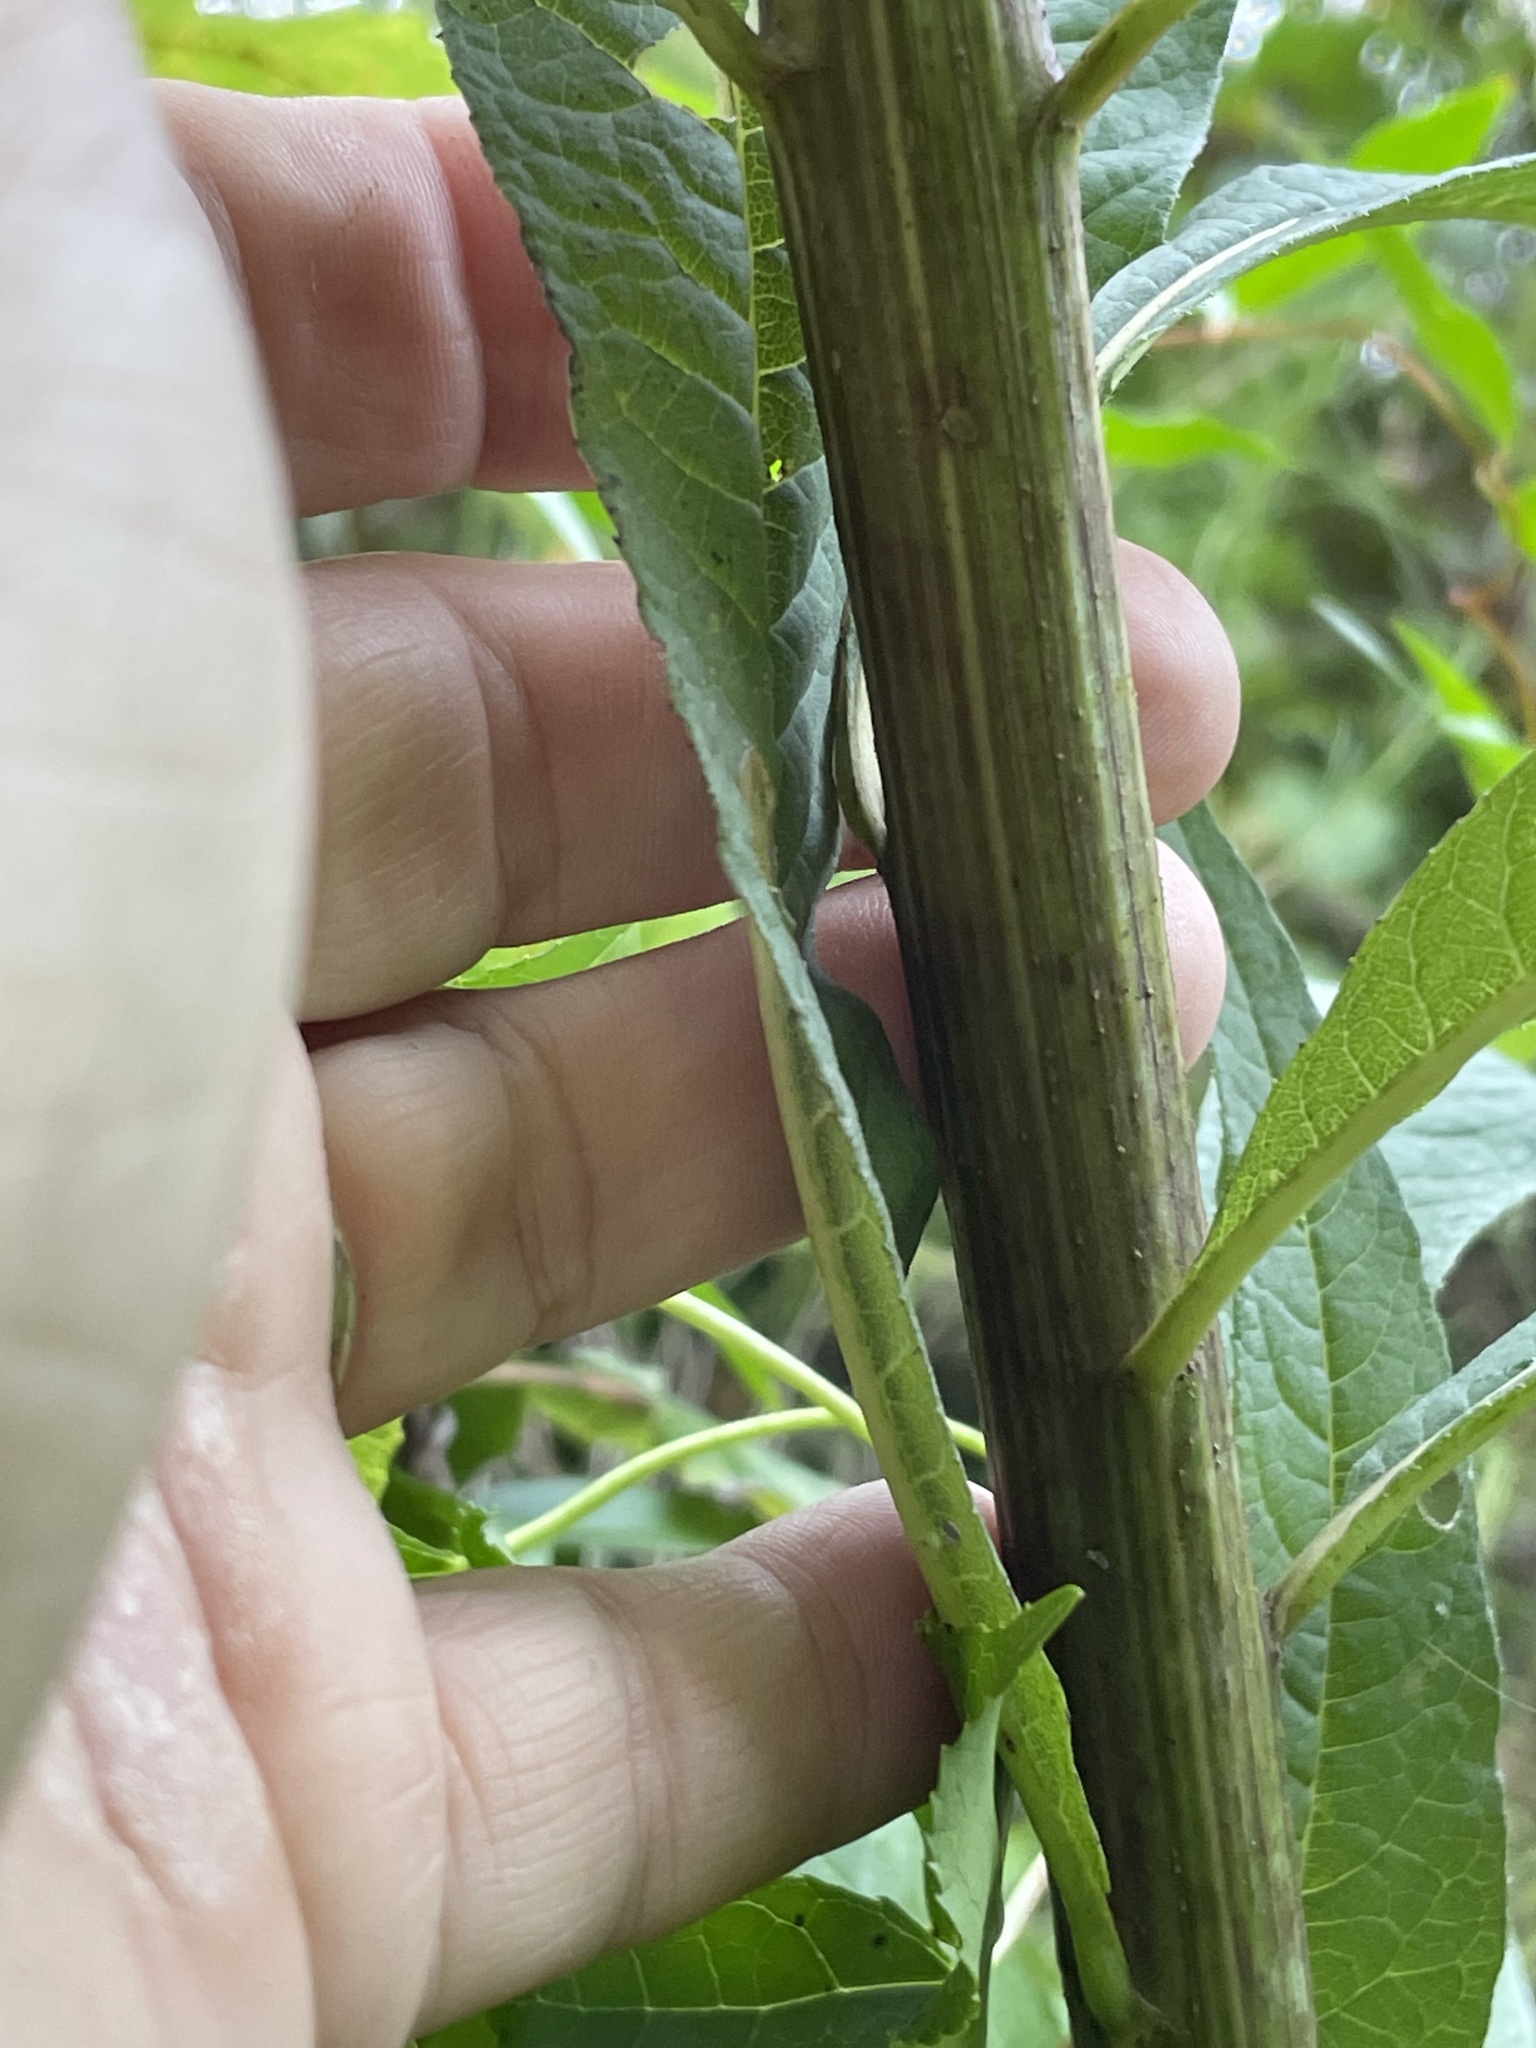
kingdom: Plantae
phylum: Tracheophyta
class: Magnoliopsida
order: Asterales
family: Asteraceae
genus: Vernonia
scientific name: Vernonia gigantea
